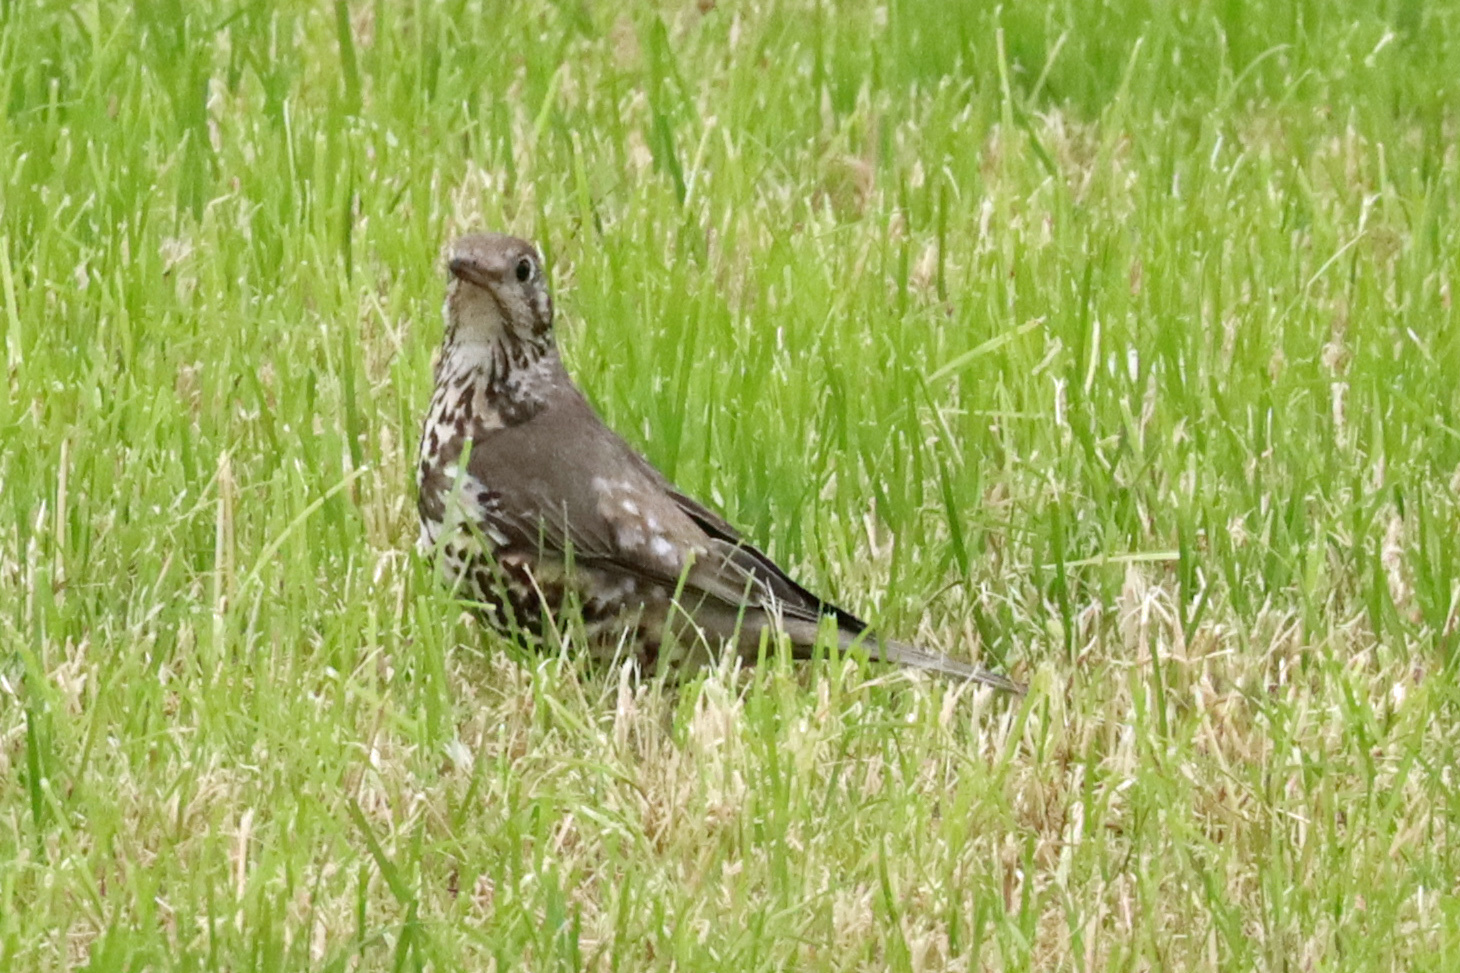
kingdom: Animalia
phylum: Chordata
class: Aves
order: Passeriformes
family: Turdidae
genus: Turdus
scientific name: Turdus viscivorus
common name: Mistle thrush
